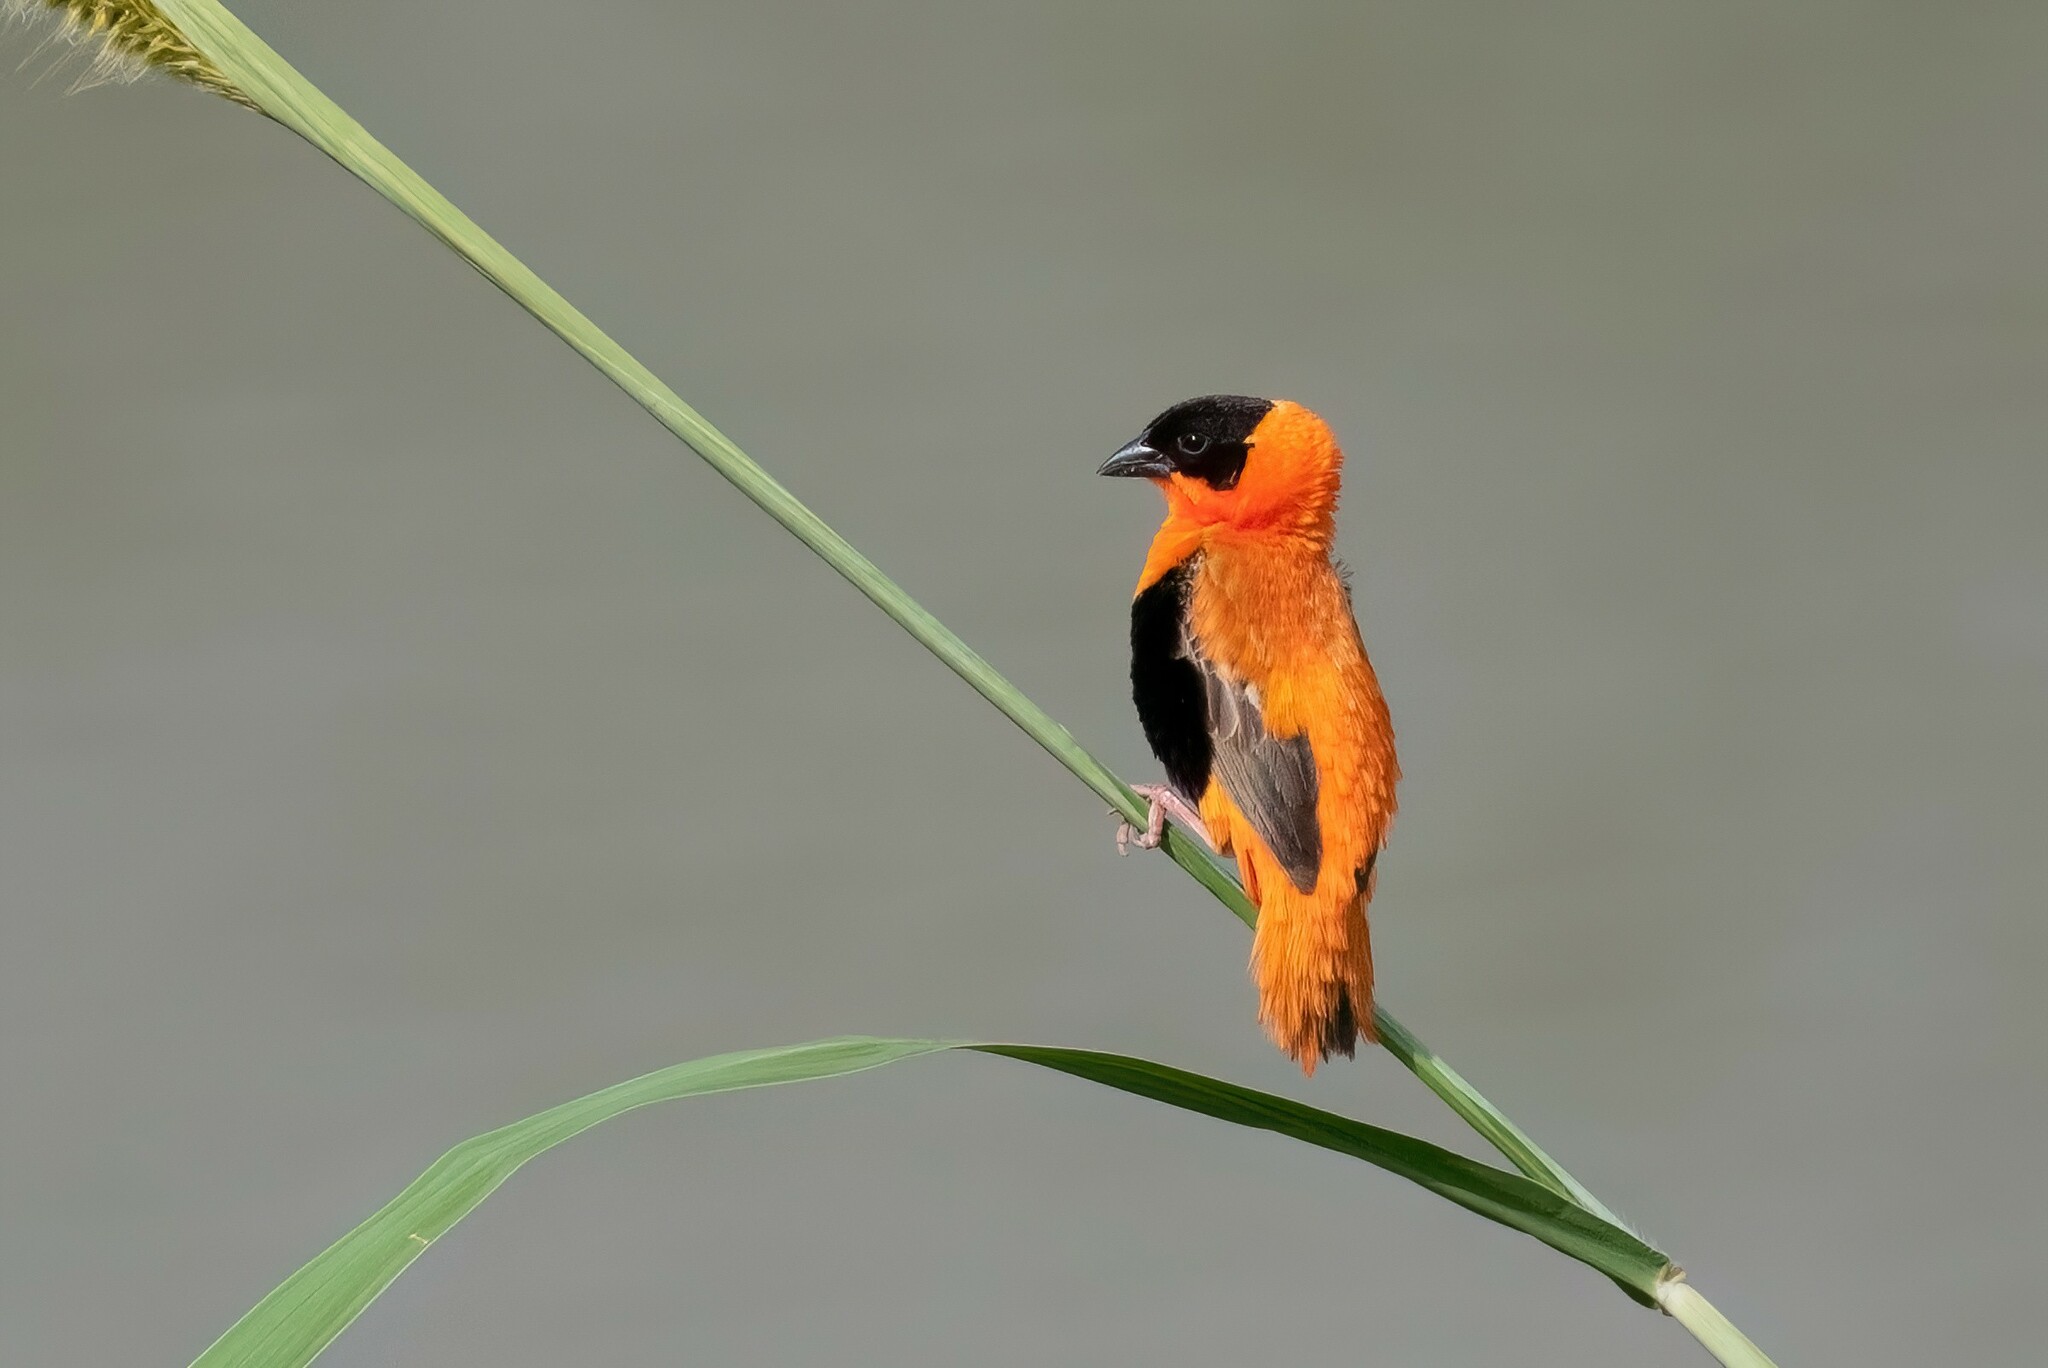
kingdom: Animalia
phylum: Chordata
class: Aves
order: Passeriformes
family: Ploceidae
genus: Euplectes
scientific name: Euplectes franciscanus
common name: Northern red bishop
